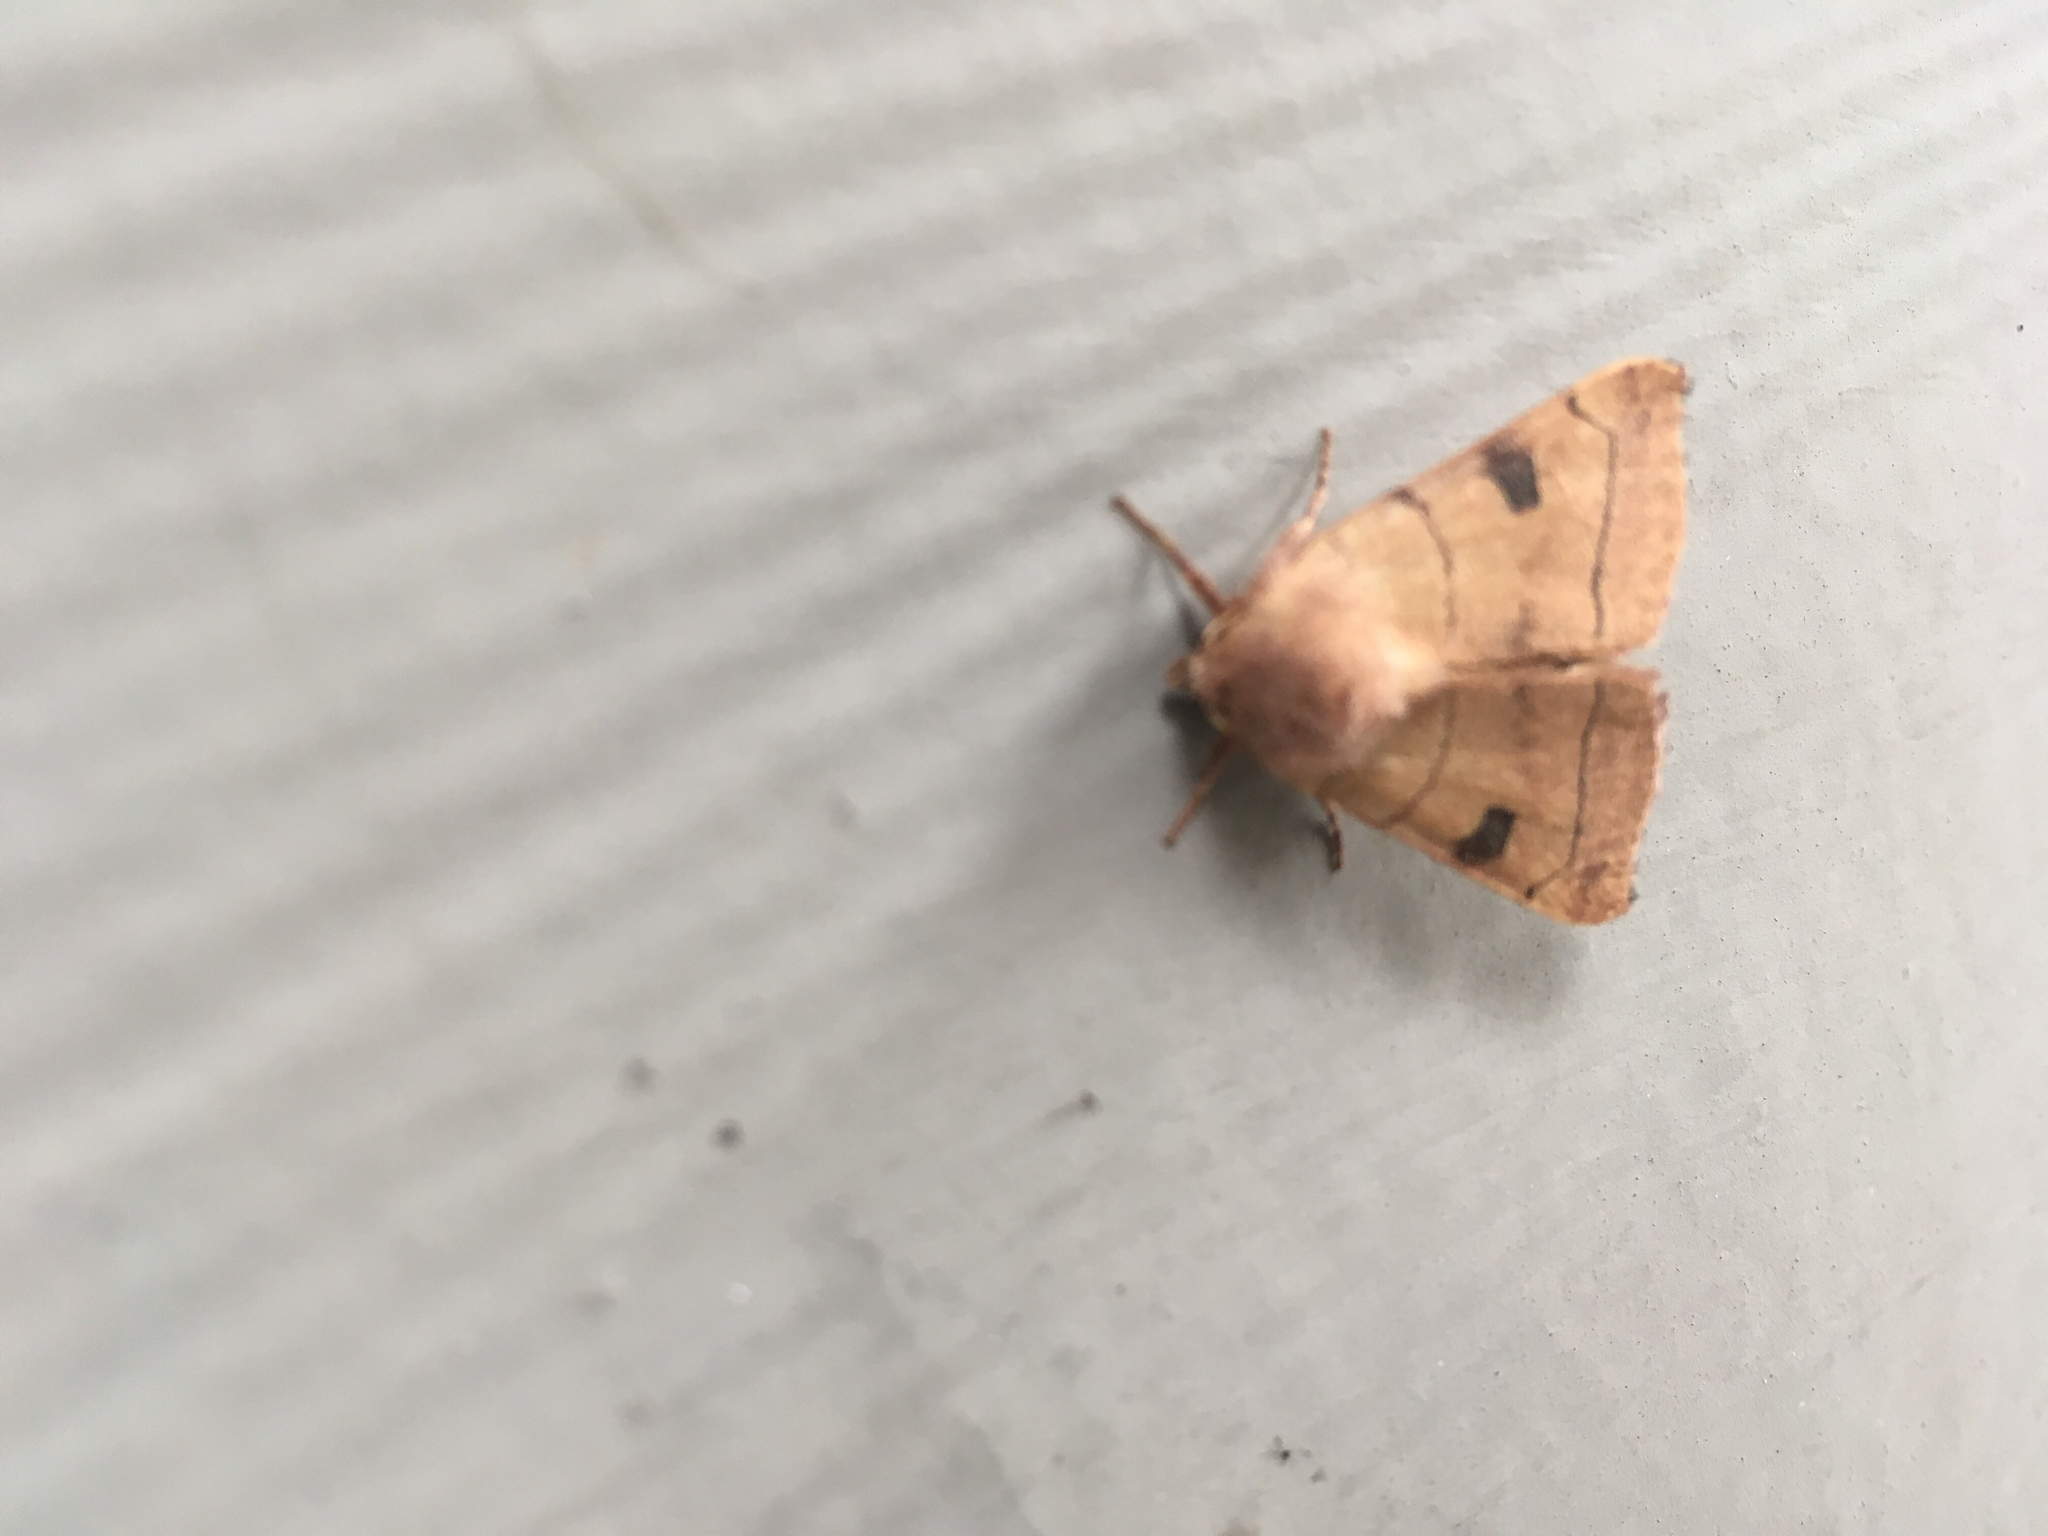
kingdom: Animalia
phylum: Arthropoda
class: Insecta
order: Lepidoptera
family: Noctuidae
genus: Choephora
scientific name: Choephora fungorum
